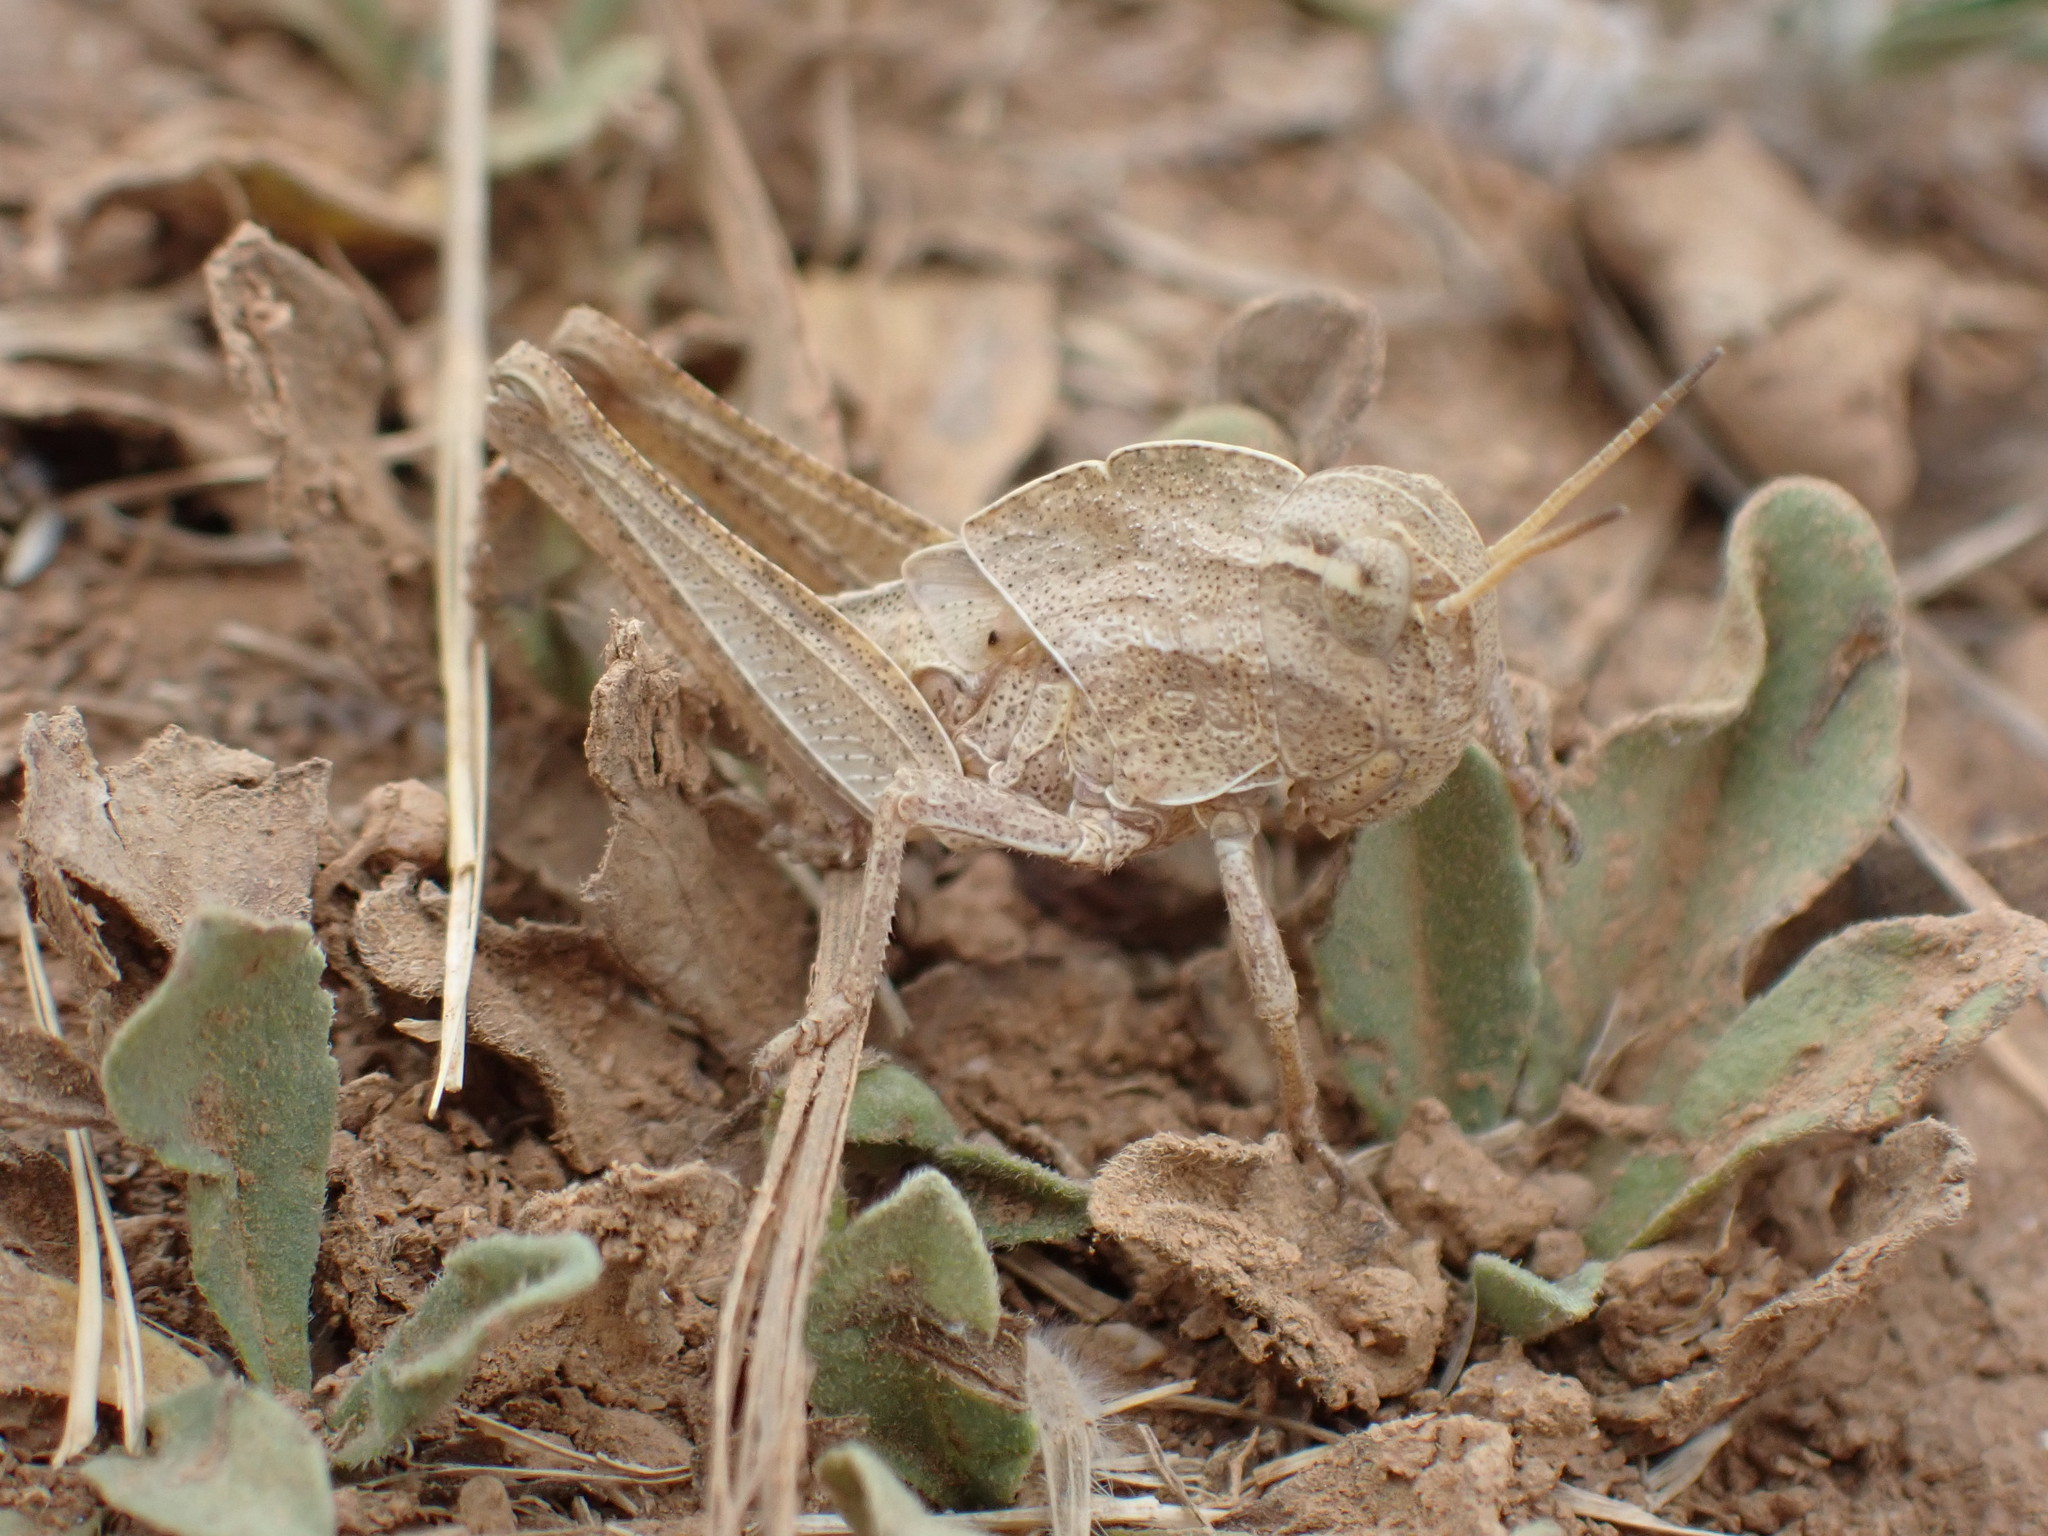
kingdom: Animalia
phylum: Arthropoda
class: Insecta
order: Orthoptera
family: Acrididae
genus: Locusta
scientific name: Locusta migratoria
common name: Migratory locust
